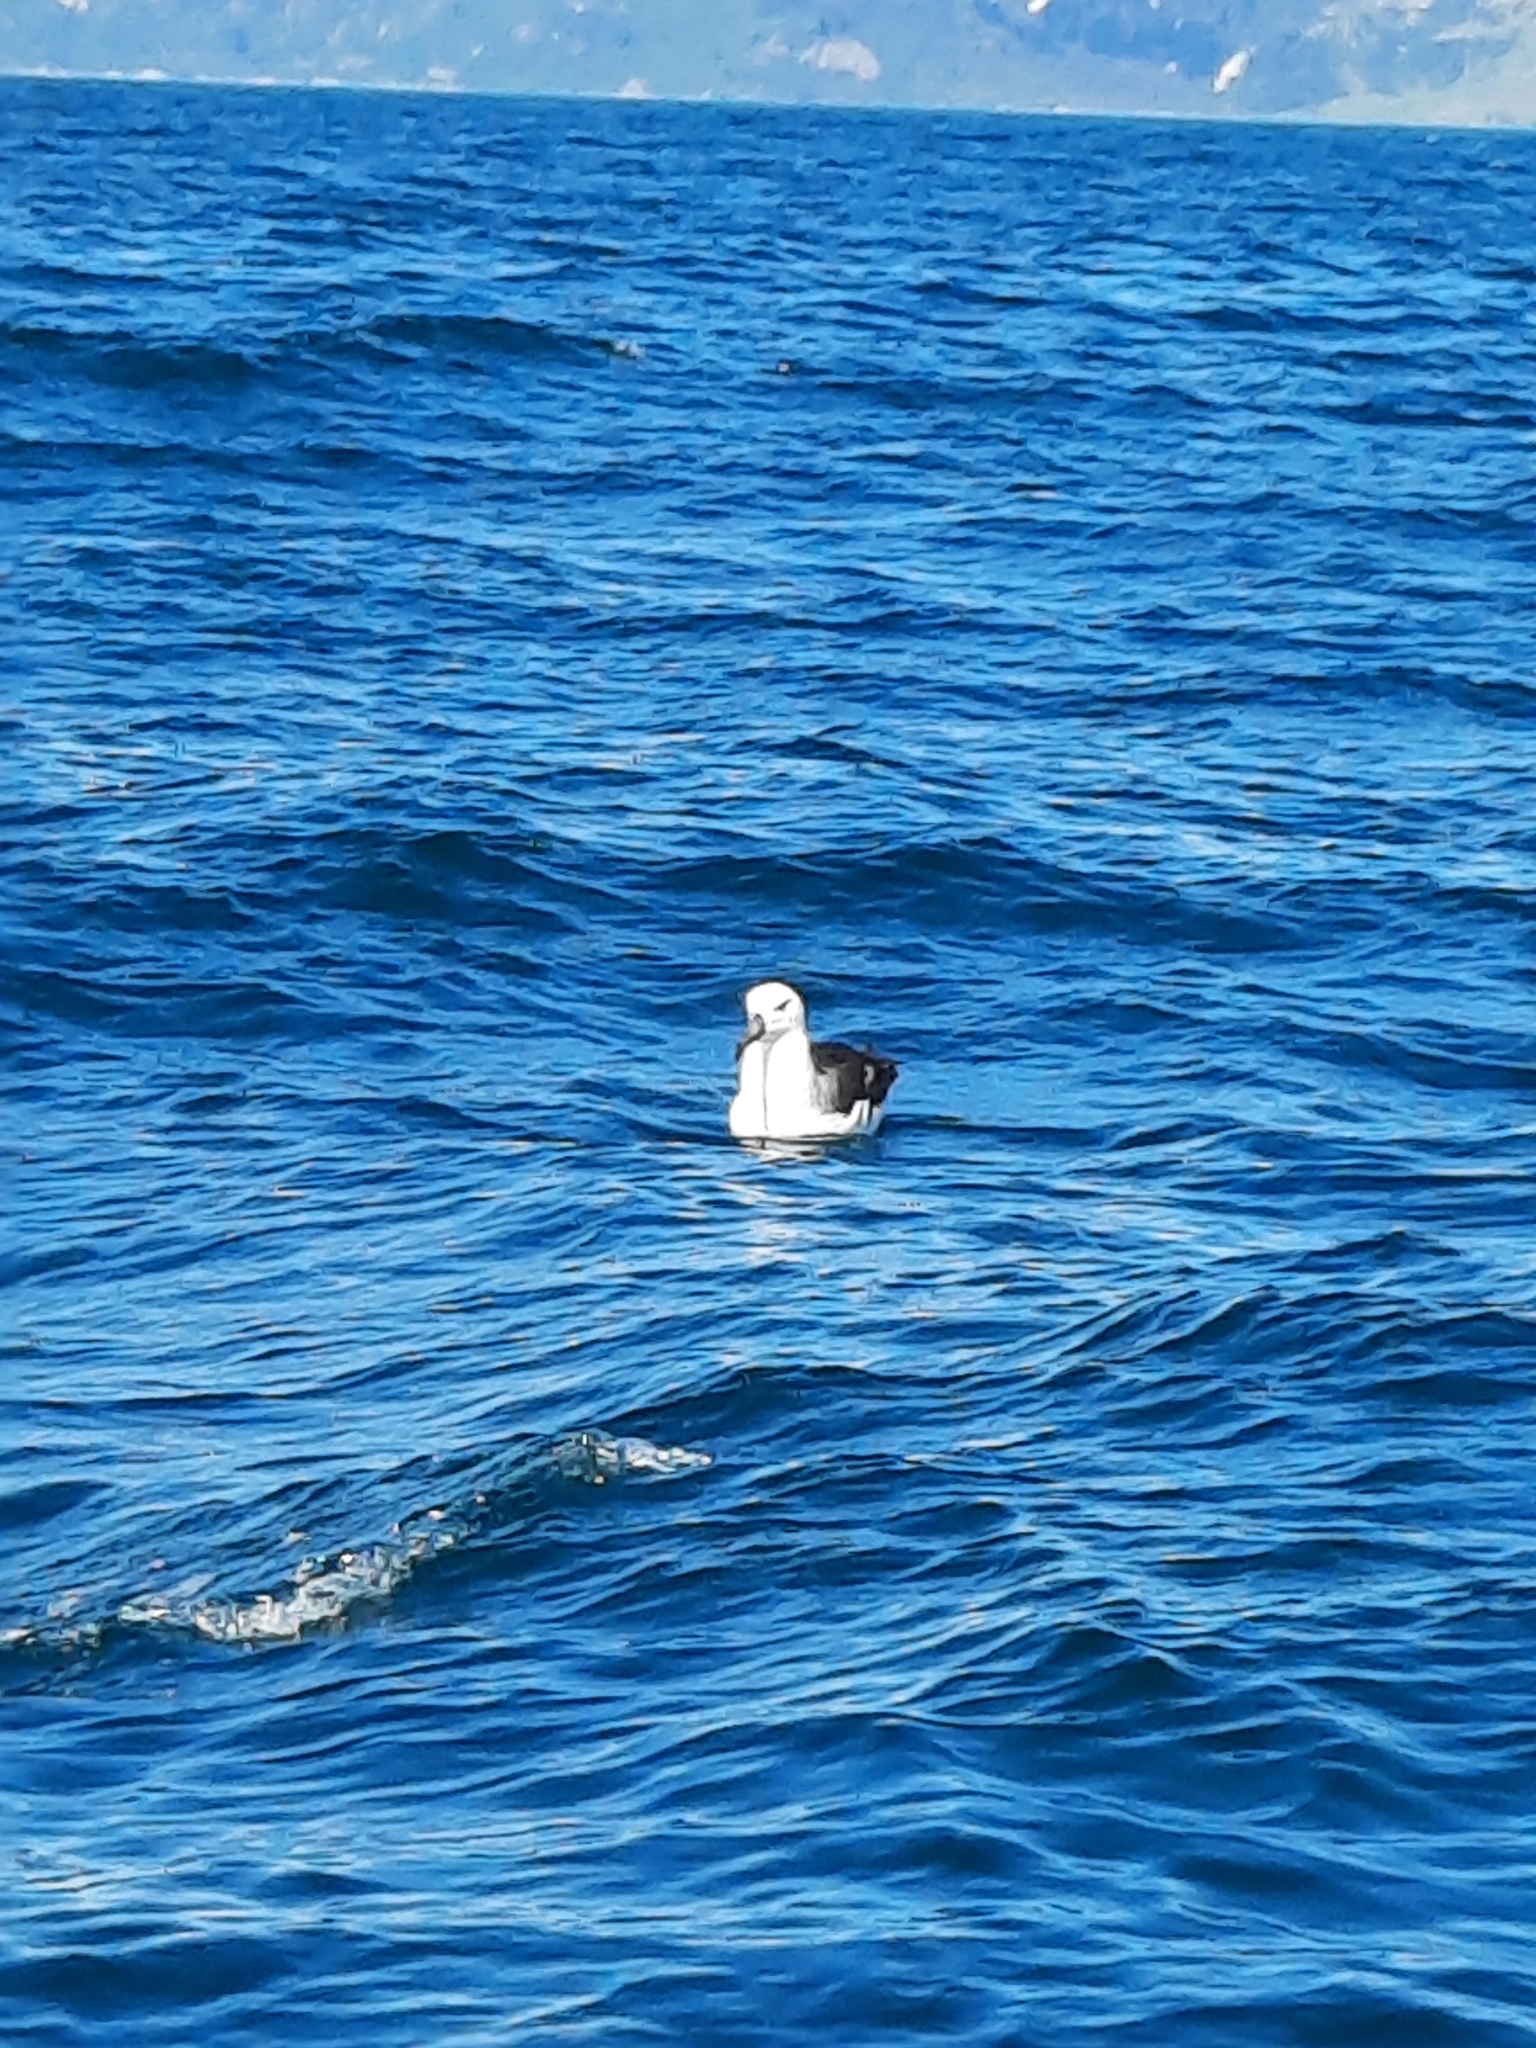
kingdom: Animalia
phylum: Chordata
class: Aves
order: Procellariiformes
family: Diomedeidae
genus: Thalassarche
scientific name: Thalassarche melanophris
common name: Black-browed albatross
